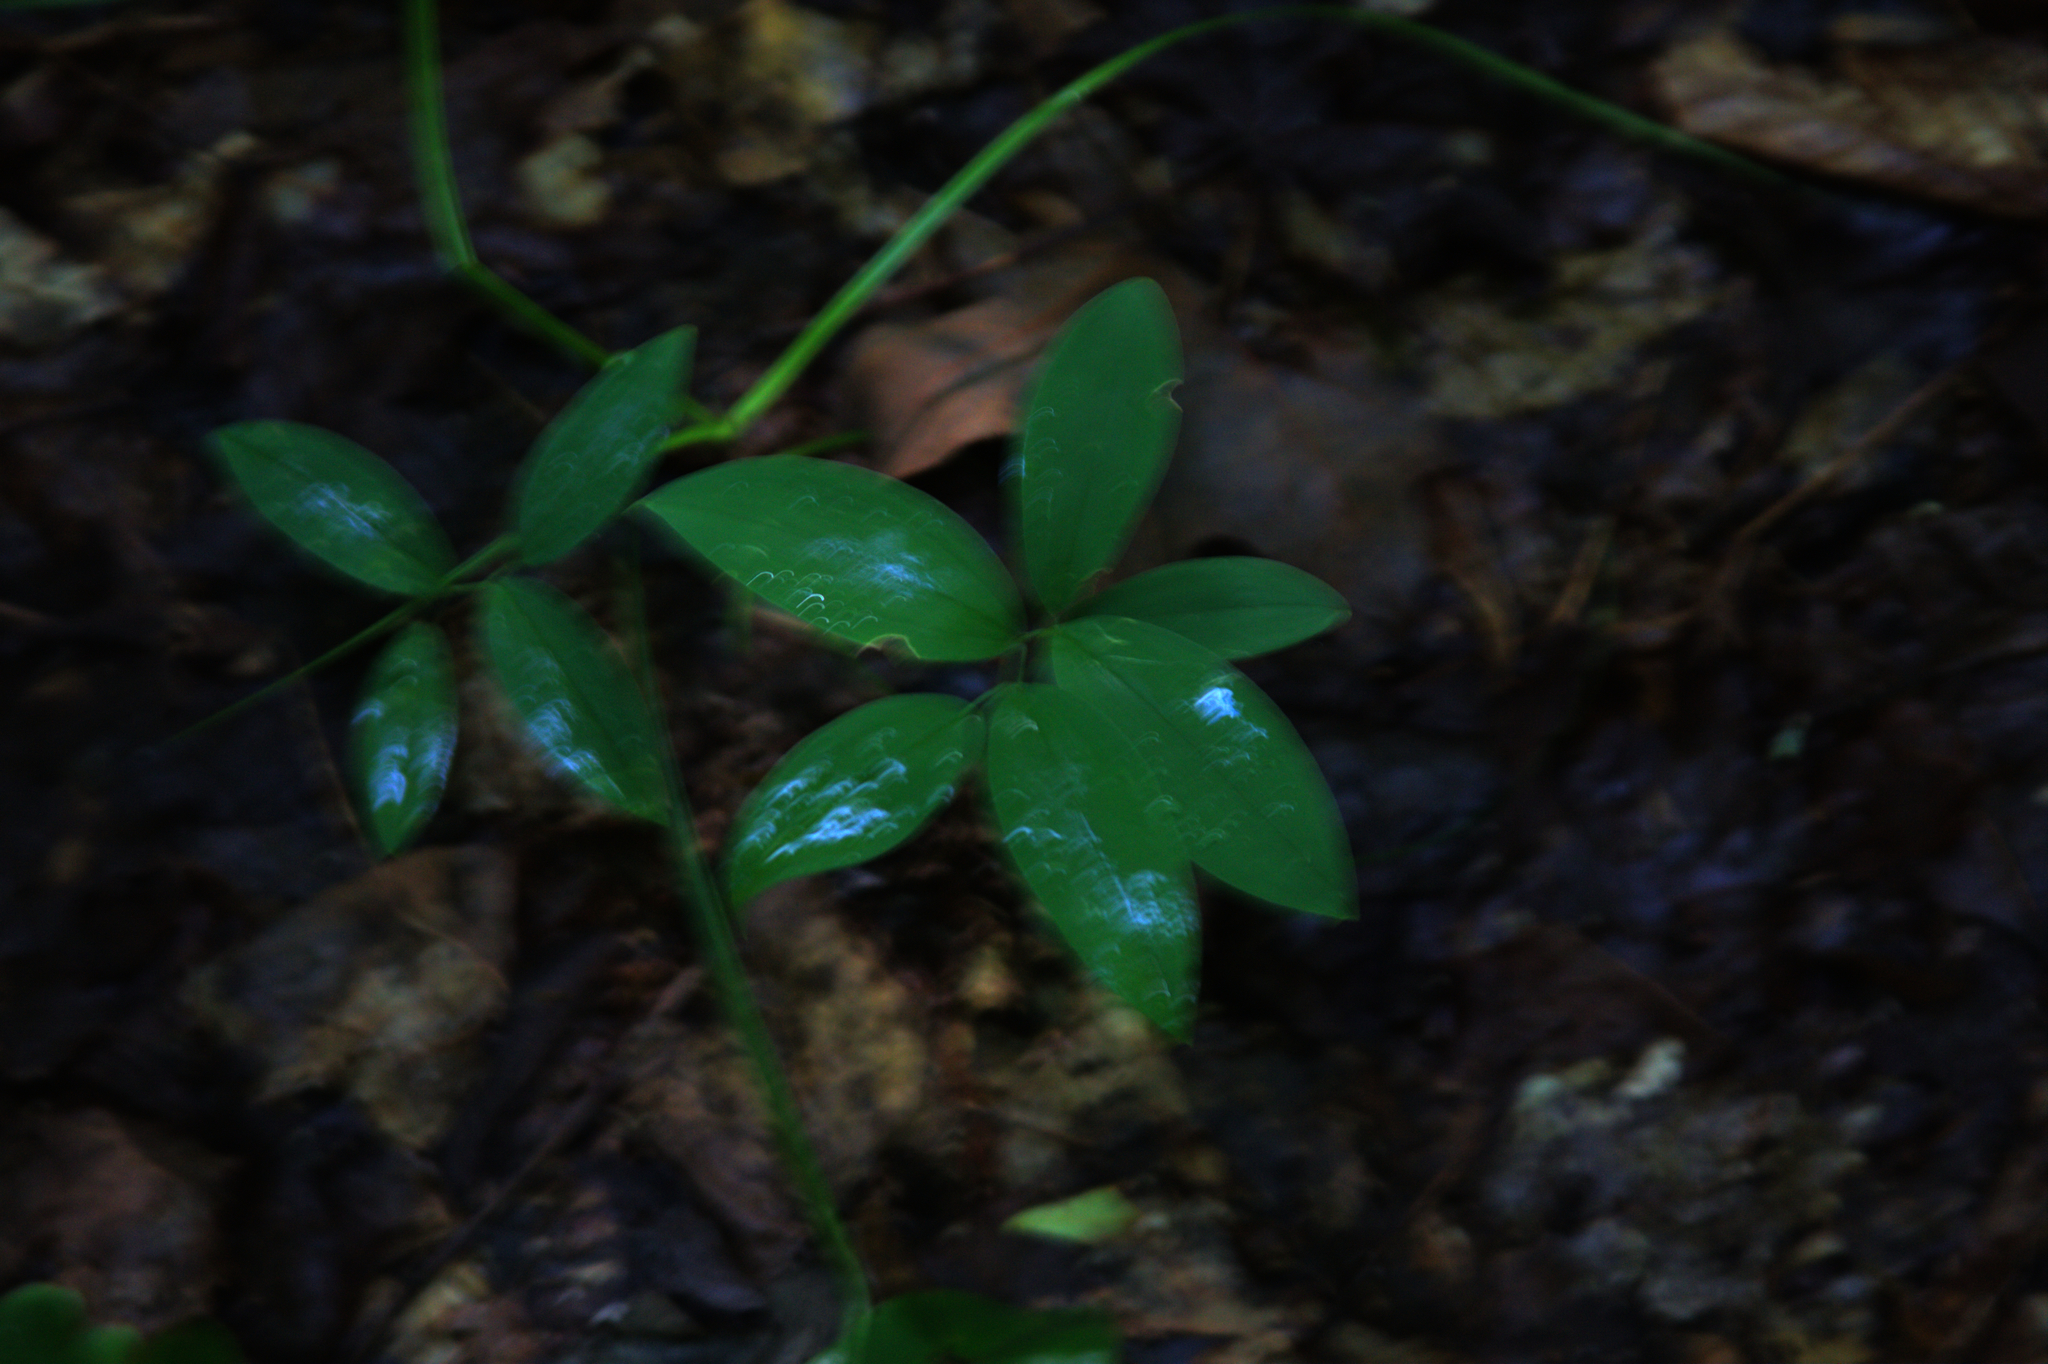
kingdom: Plantae
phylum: Tracheophyta
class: Liliopsida
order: Liliales
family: Colchicaceae
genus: Uvularia
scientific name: Uvularia sessilifolia
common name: Straw-lily
